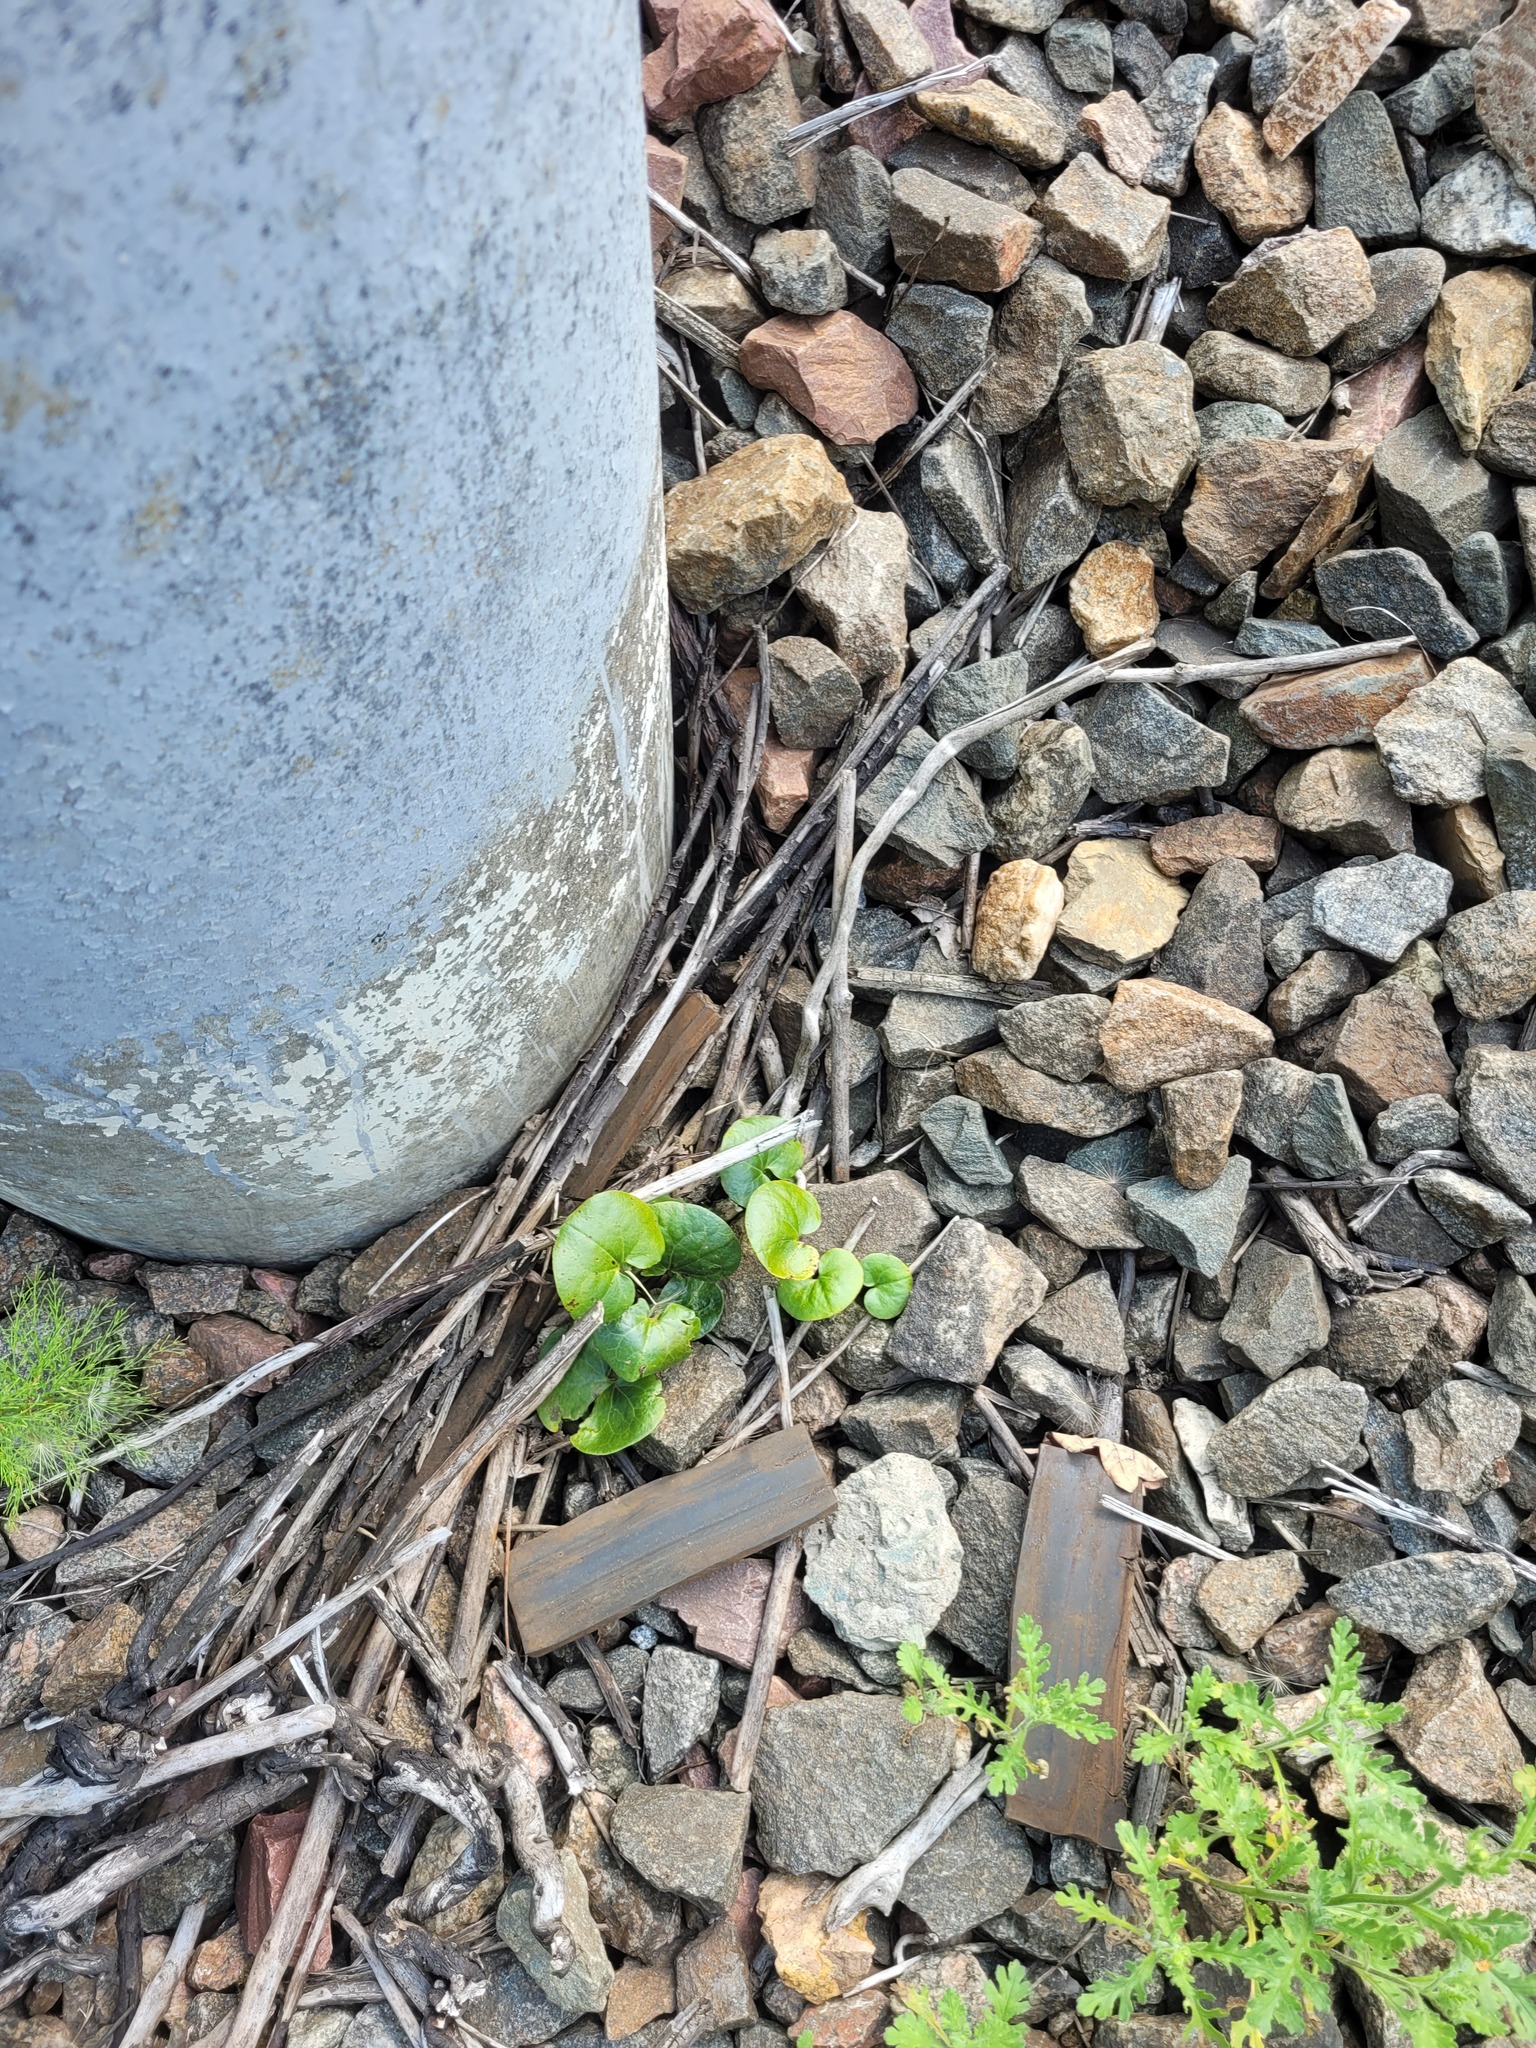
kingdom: Plantae
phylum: Tracheophyta
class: Magnoliopsida
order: Piperales
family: Aristolochiaceae
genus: Asarum
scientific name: Asarum europaeum
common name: Asarabacca
